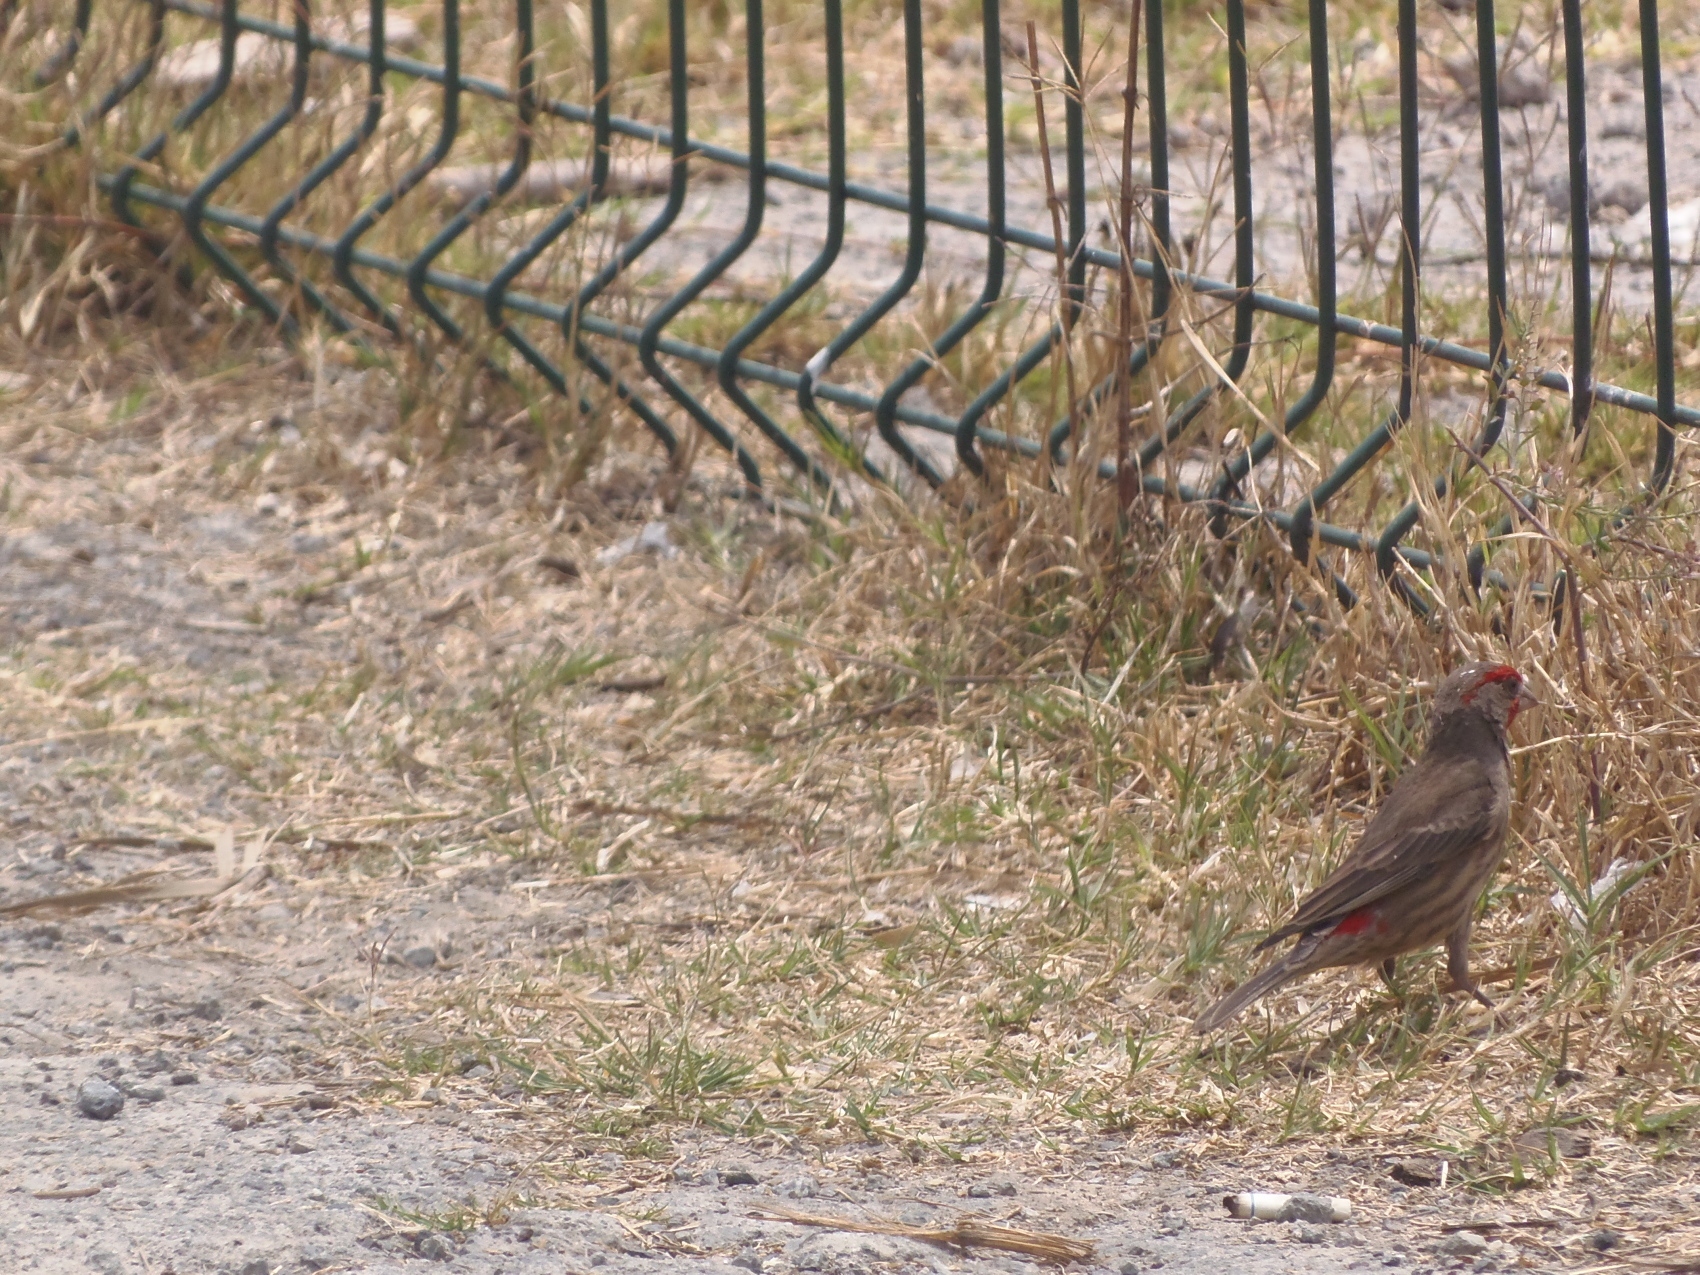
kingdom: Animalia
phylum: Chordata
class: Aves
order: Passeriformes
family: Fringillidae
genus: Haemorhous
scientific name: Haemorhous mexicanus
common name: House finch
